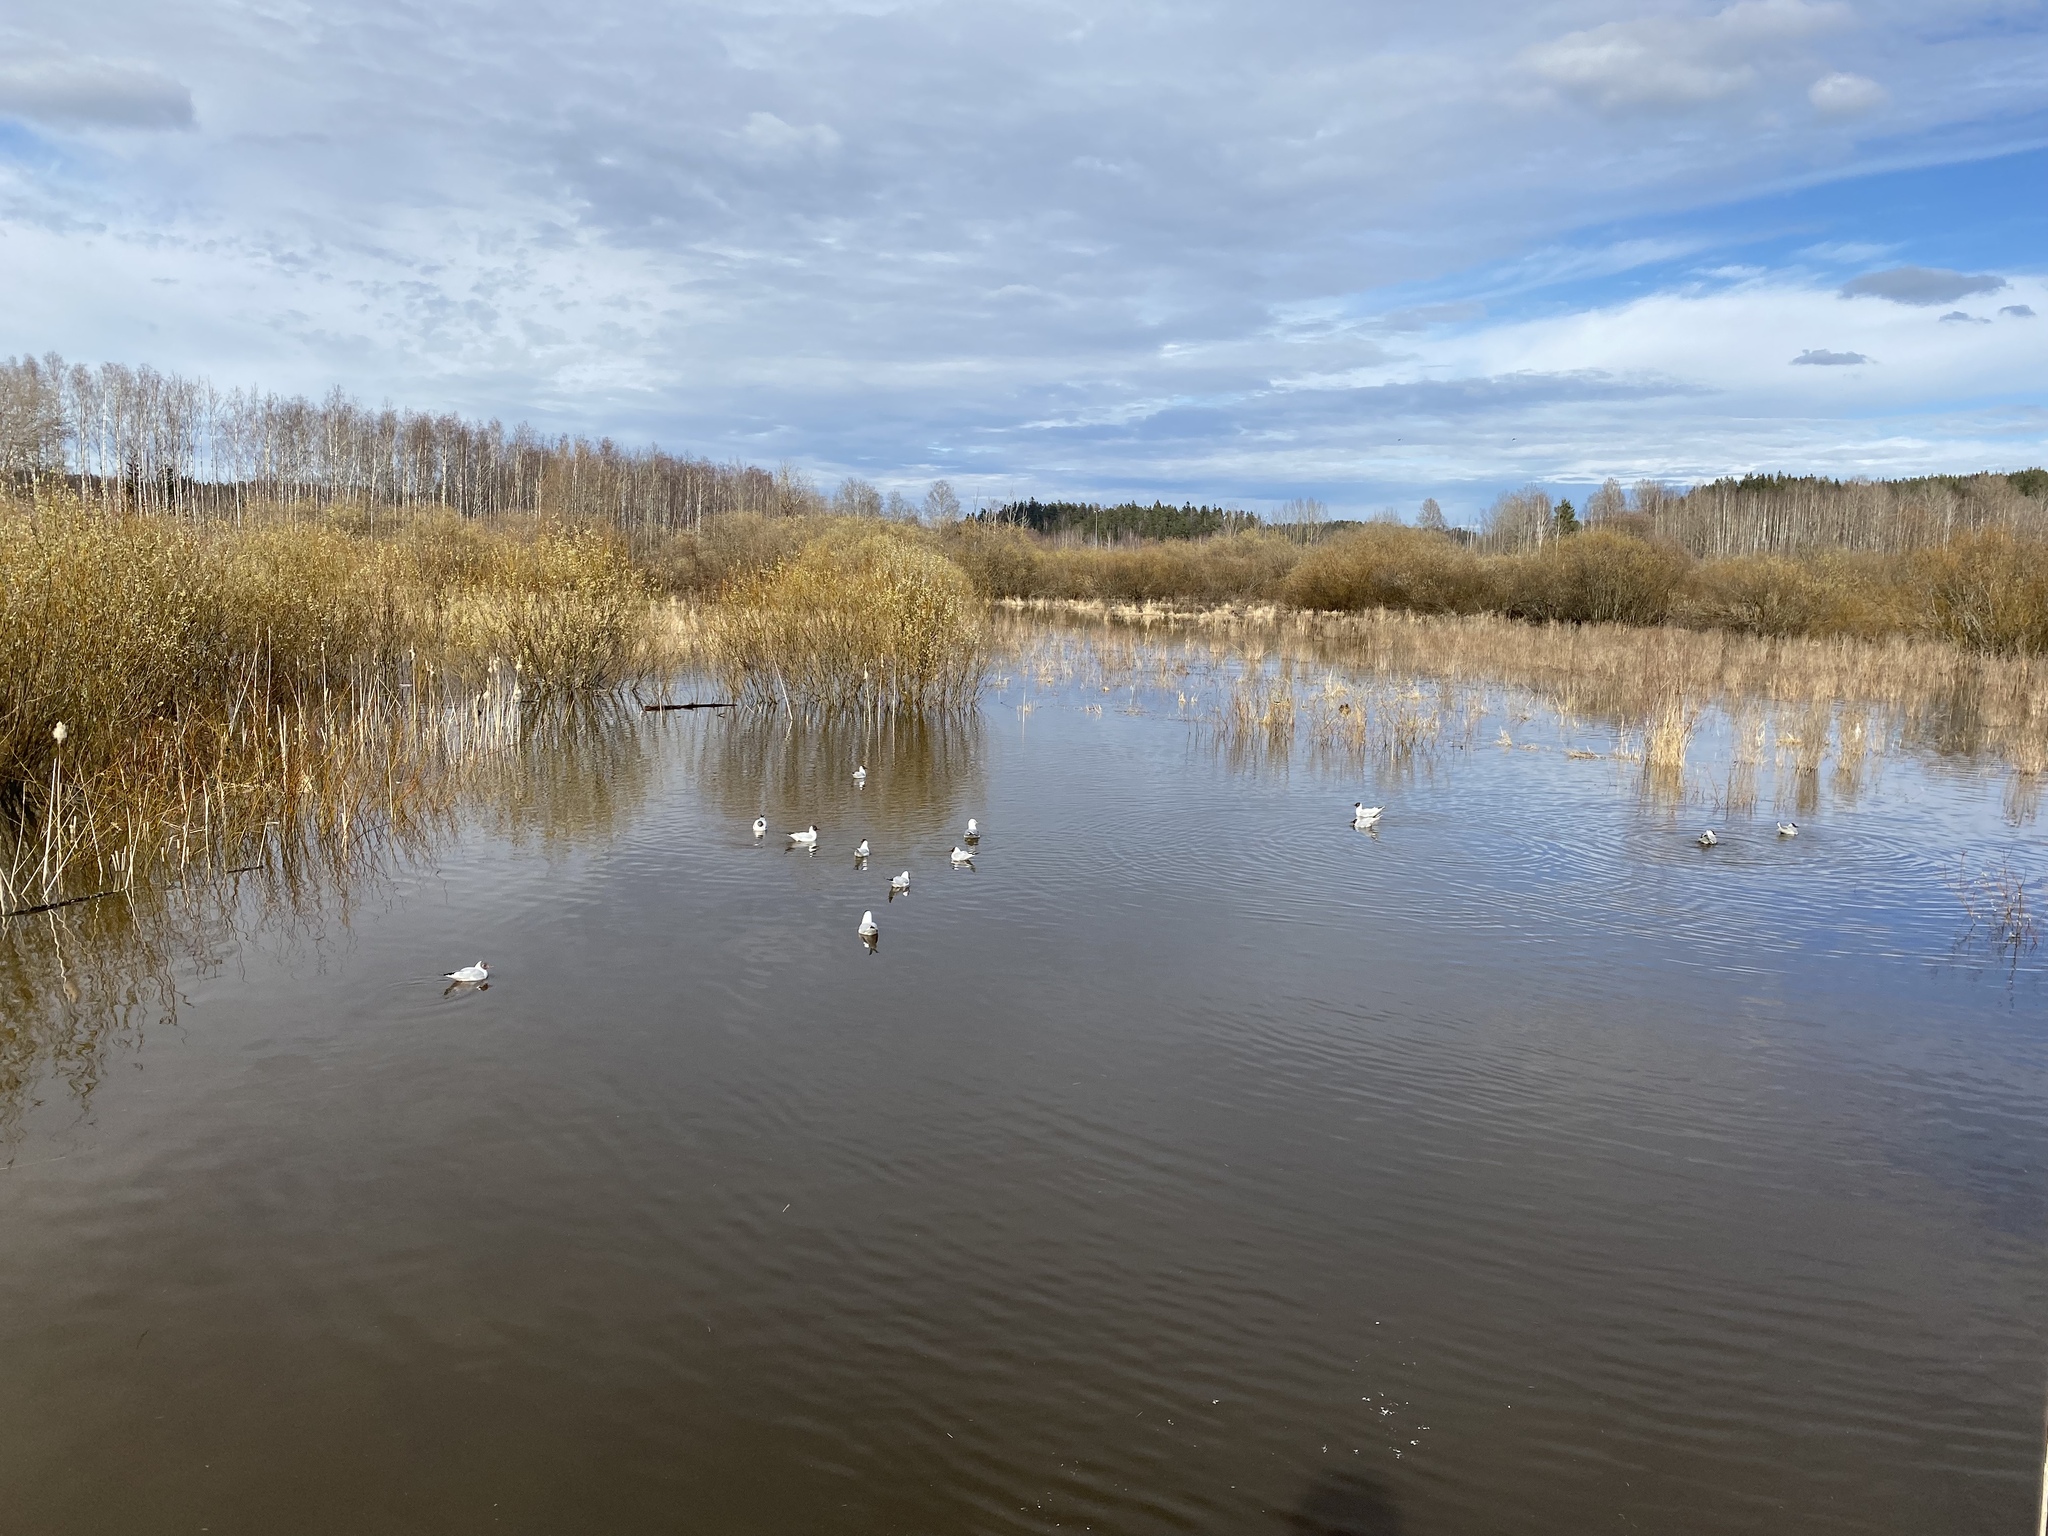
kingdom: Animalia
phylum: Chordata
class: Aves
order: Charadriiformes
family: Laridae
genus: Chroicocephalus
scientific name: Chroicocephalus ridibundus
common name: Black-headed gull
